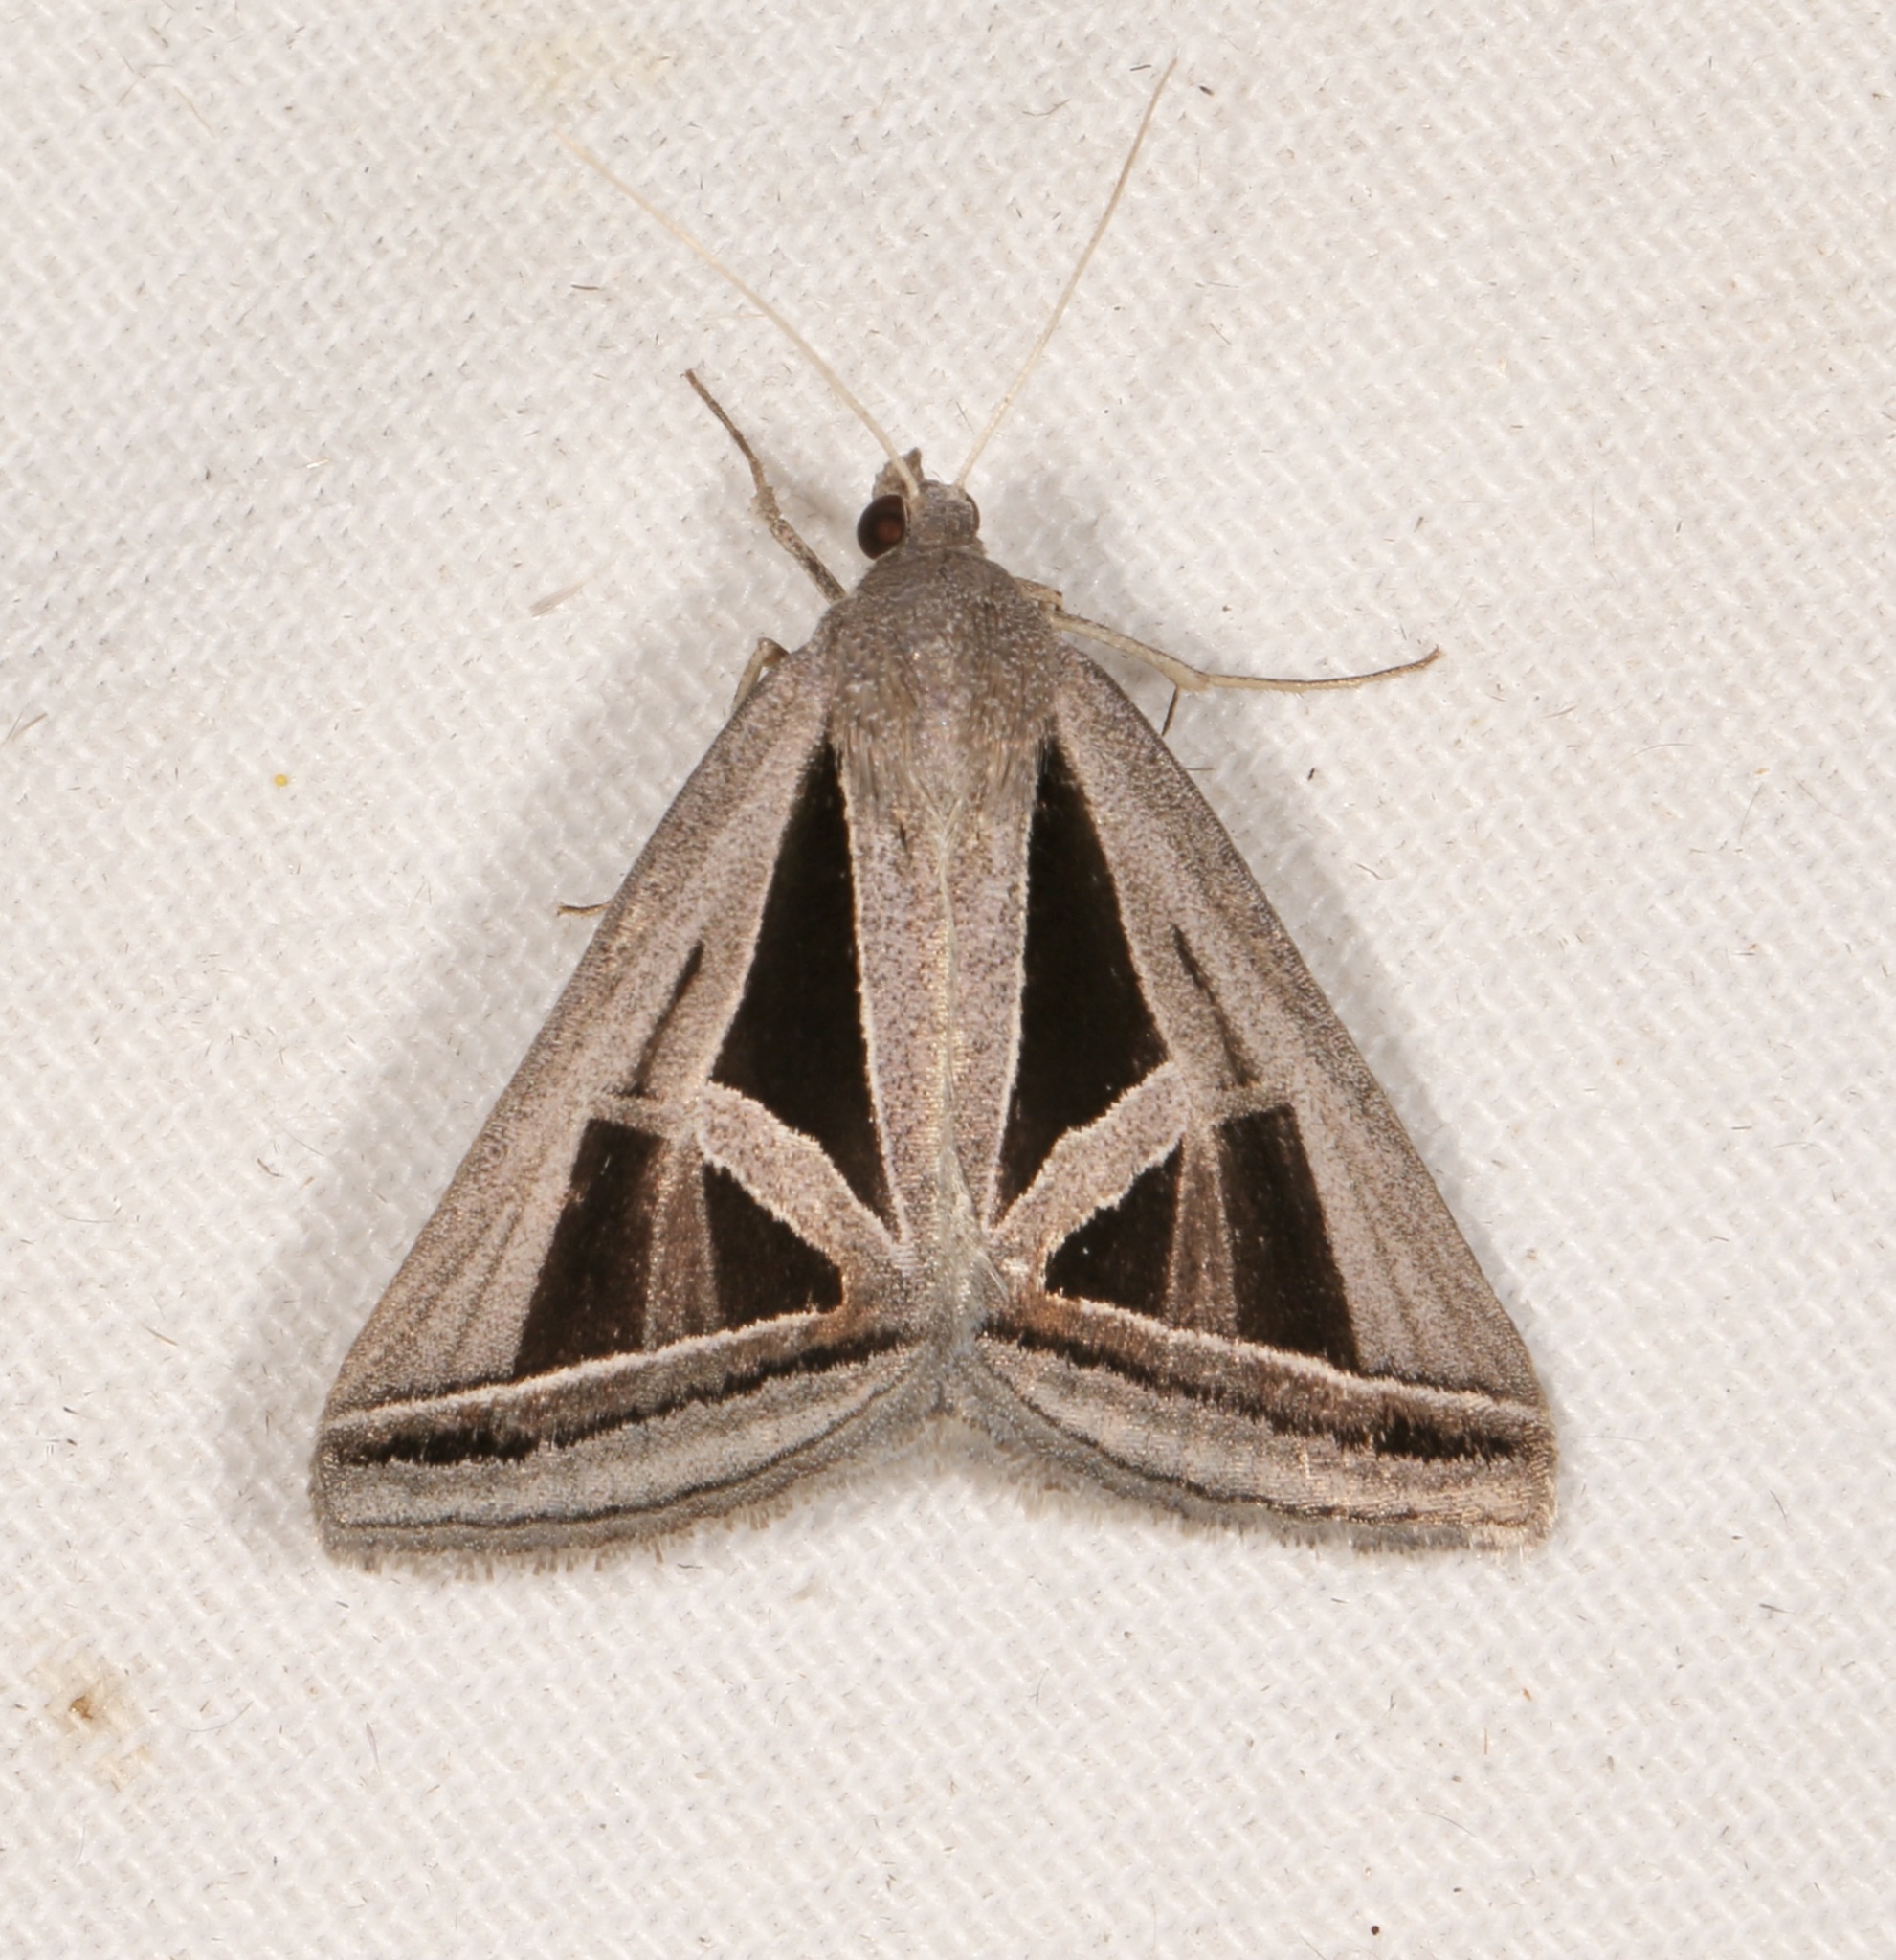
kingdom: Animalia
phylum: Arthropoda
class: Insecta
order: Lepidoptera
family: Erebidae
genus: Callistege
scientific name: Callistege triangula
